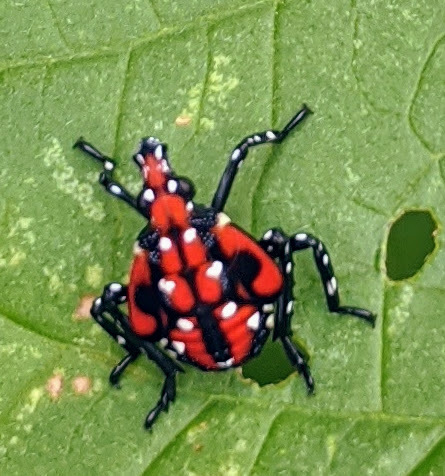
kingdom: Animalia
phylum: Arthropoda
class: Insecta
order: Hemiptera
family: Fulgoridae
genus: Lycorma
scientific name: Lycorma delicatula
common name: Spotted lanternfly
